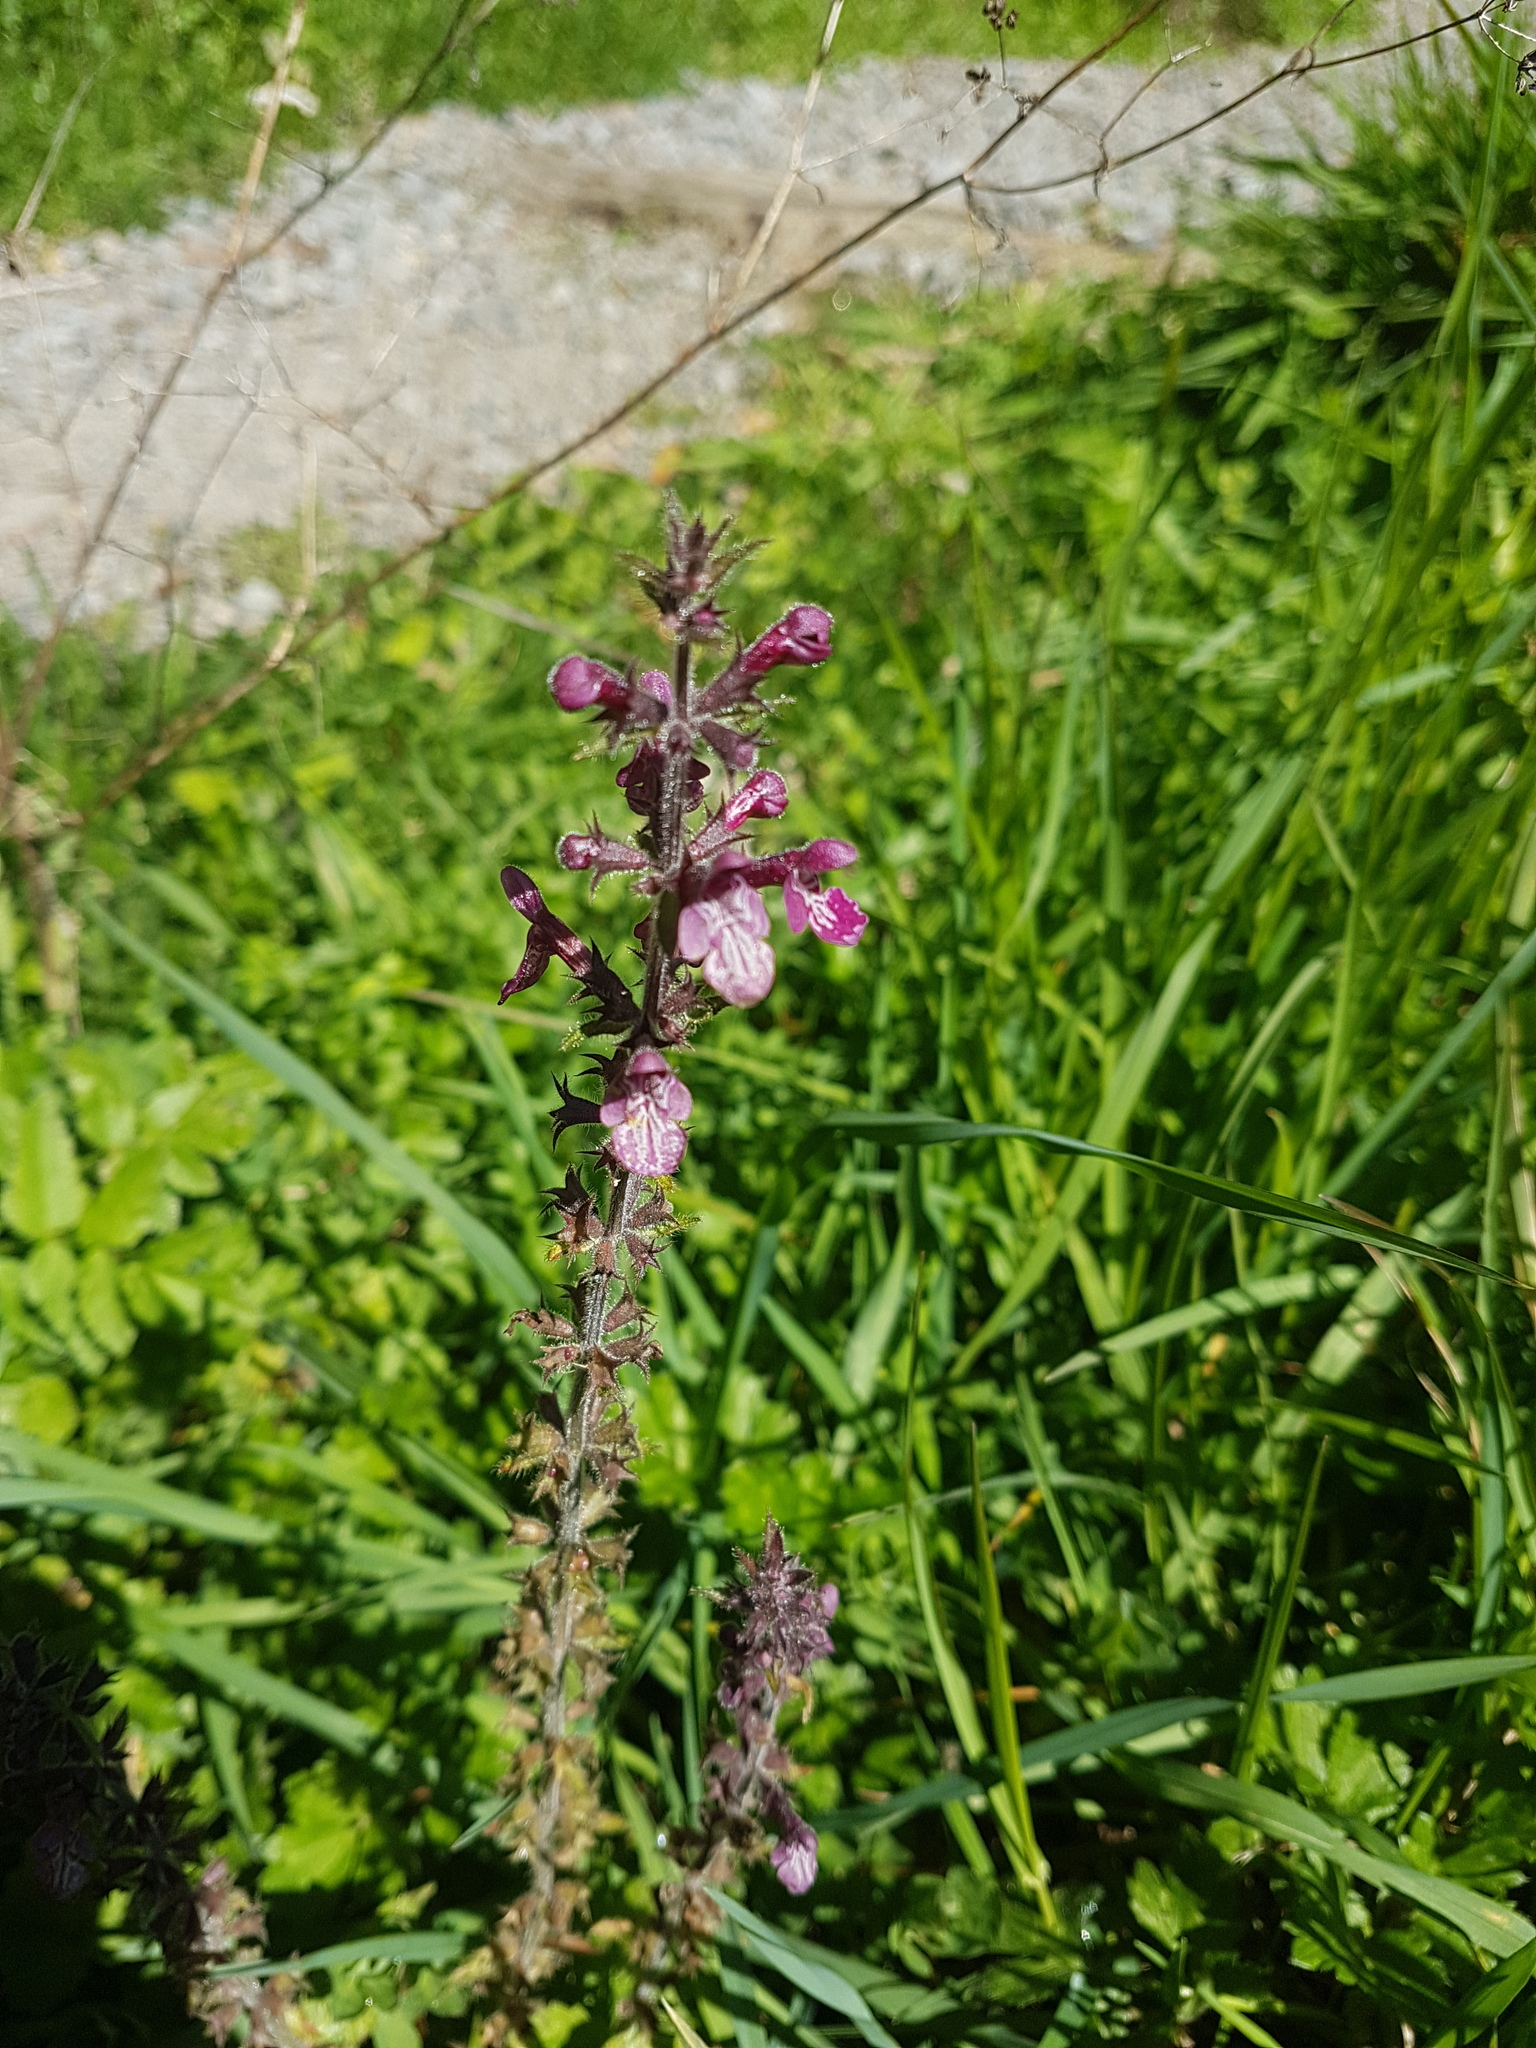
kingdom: Plantae
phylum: Tracheophyta
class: Magnoliopsida
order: Lamiales
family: Lamiaceae
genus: Stachys
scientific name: Stachys sylvatica
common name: Hedge woundwort
